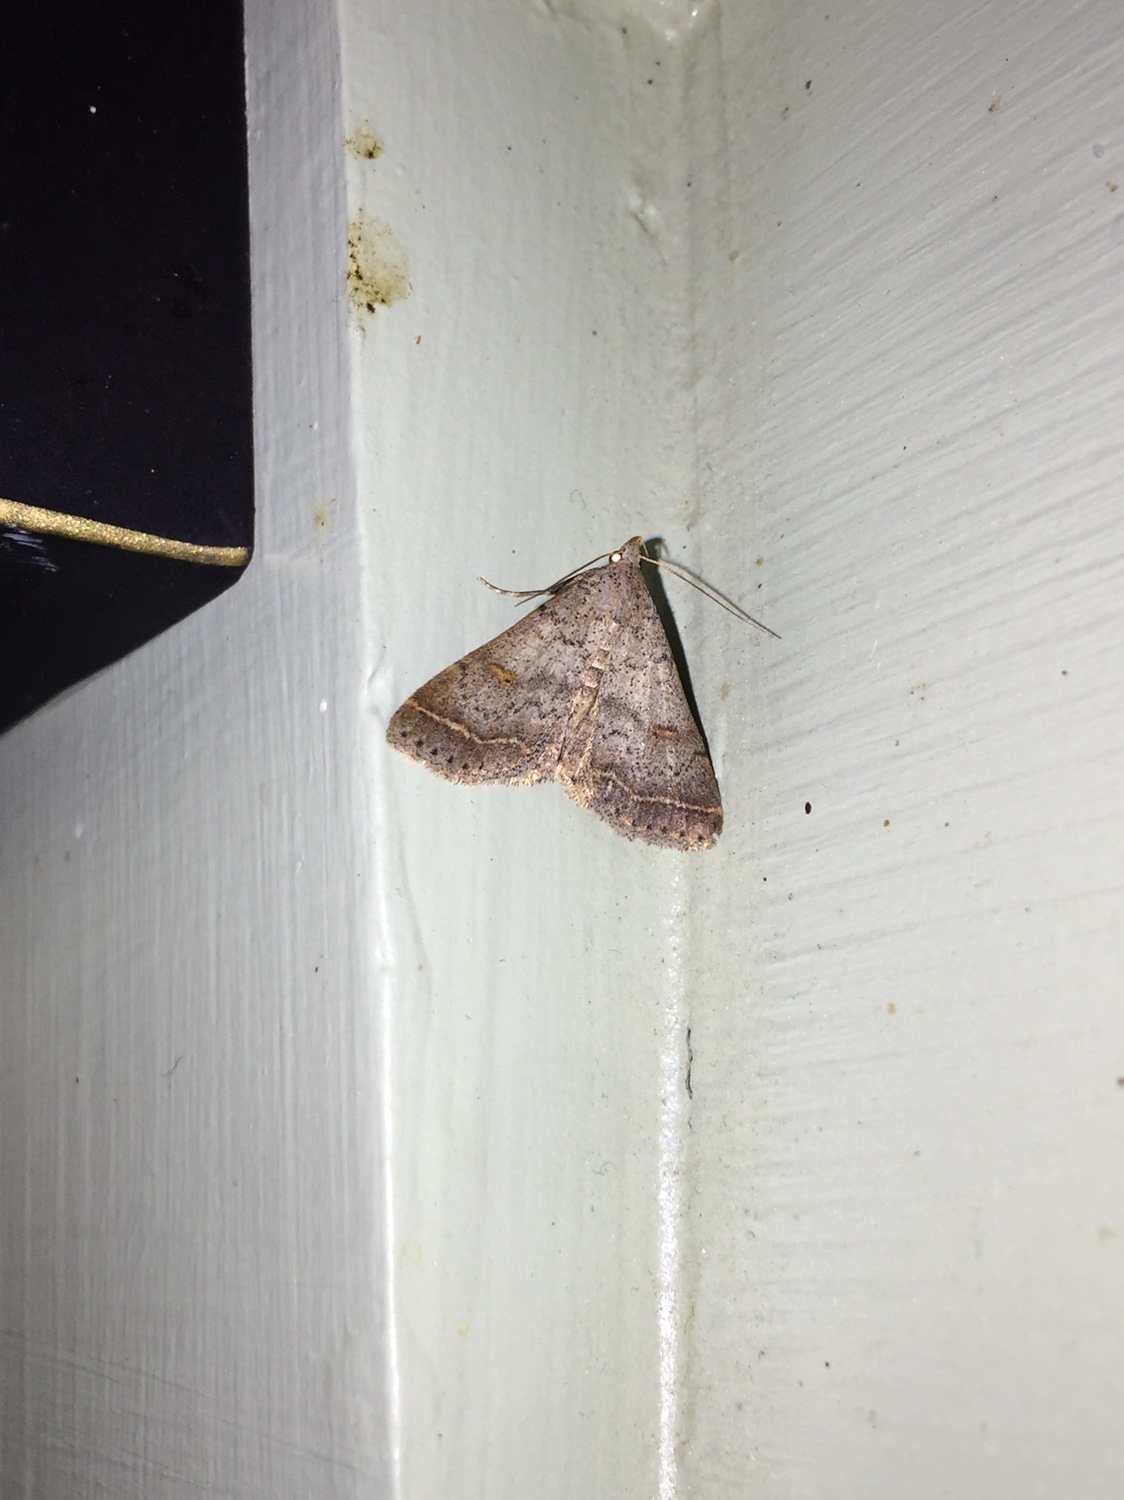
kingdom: Animalia
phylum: Arthropoda
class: Insecta
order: Lepidoptera
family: Erebidae
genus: Bleptina
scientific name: Bleptina caradrinalis
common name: Bent-winged owlet
